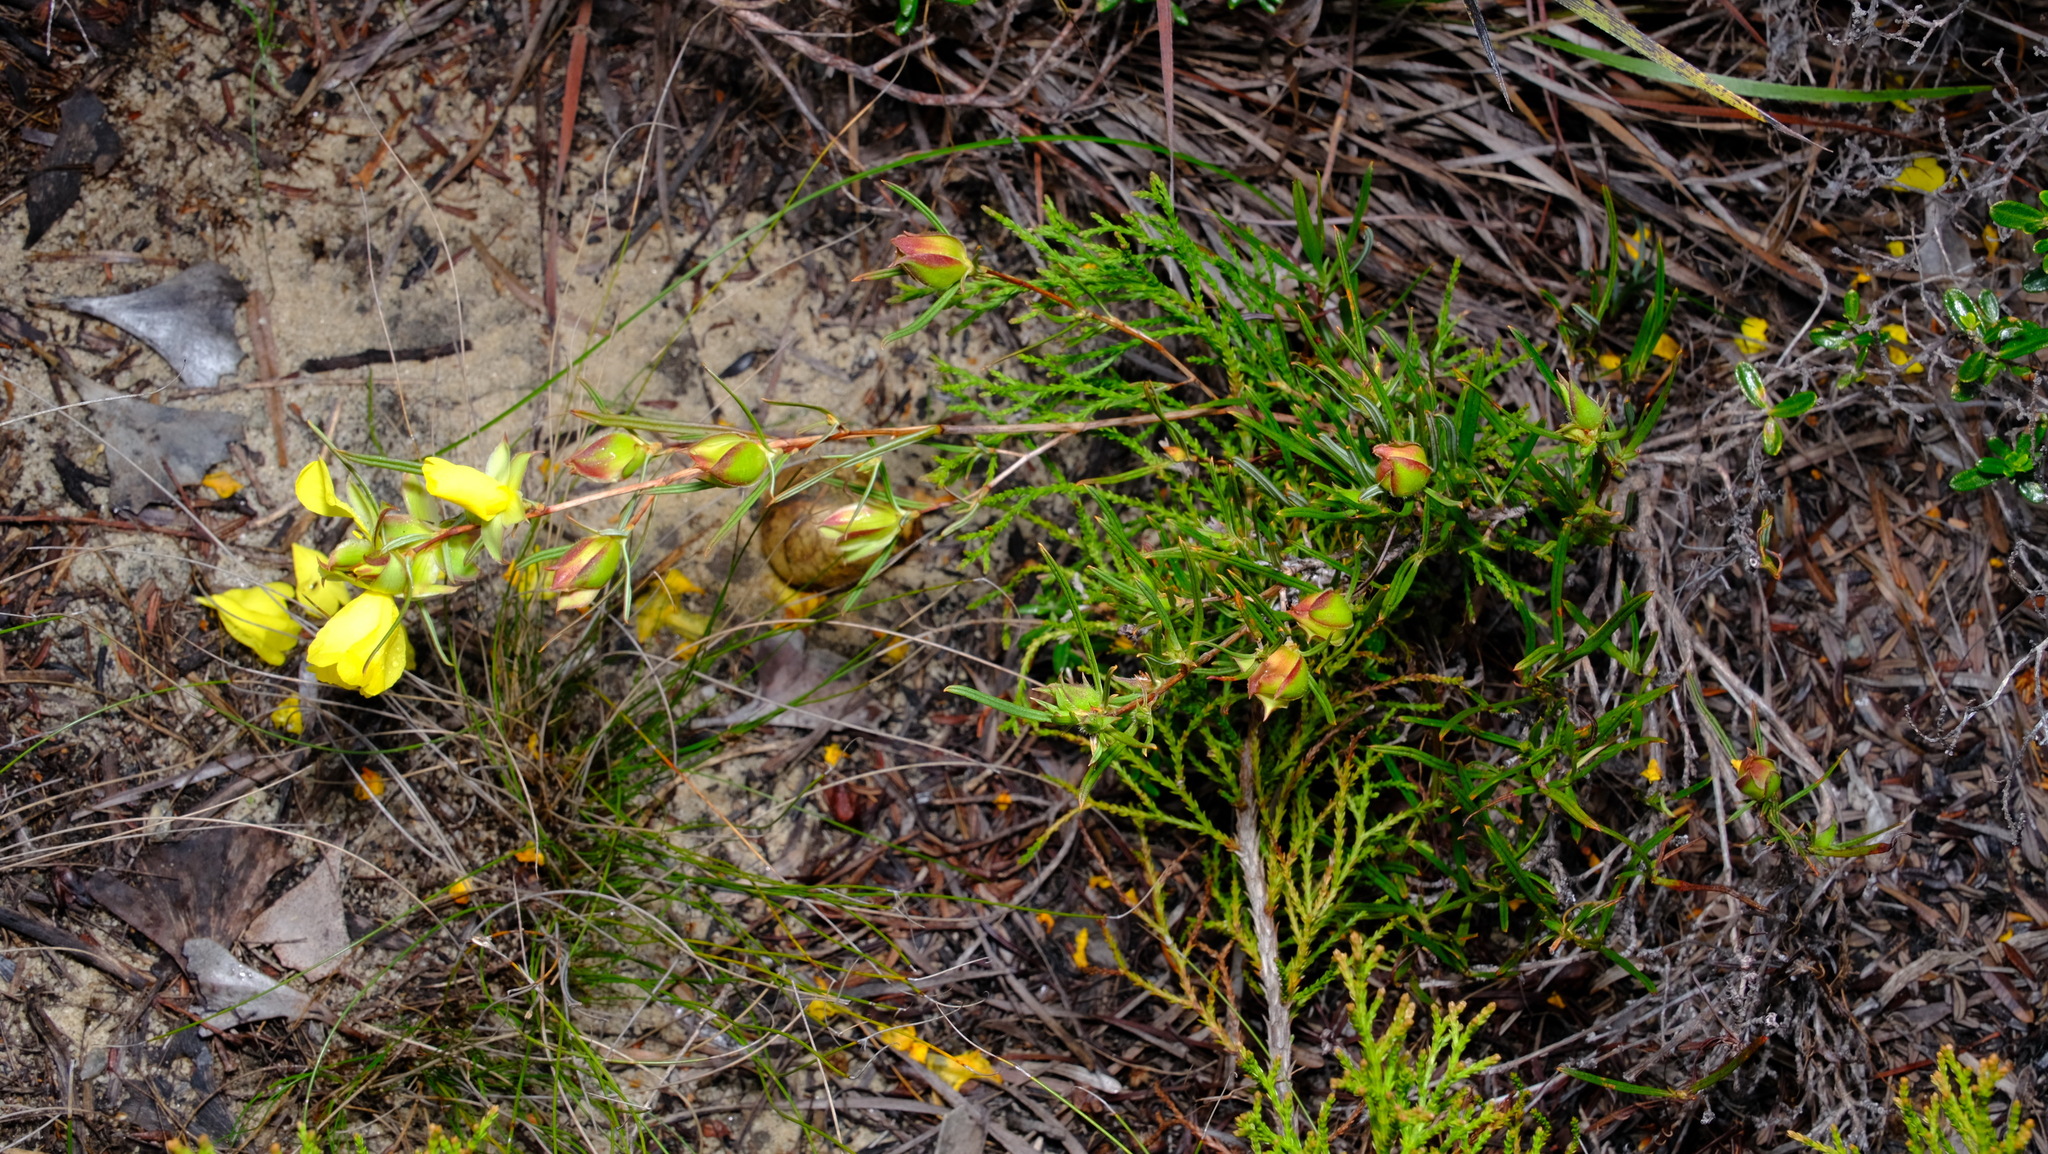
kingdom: Plantae
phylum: Tracheophyta
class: Magnoliopsida
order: Dilleniales
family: Dilleniaceae
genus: Hibbertia
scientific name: Hibbertia striata
